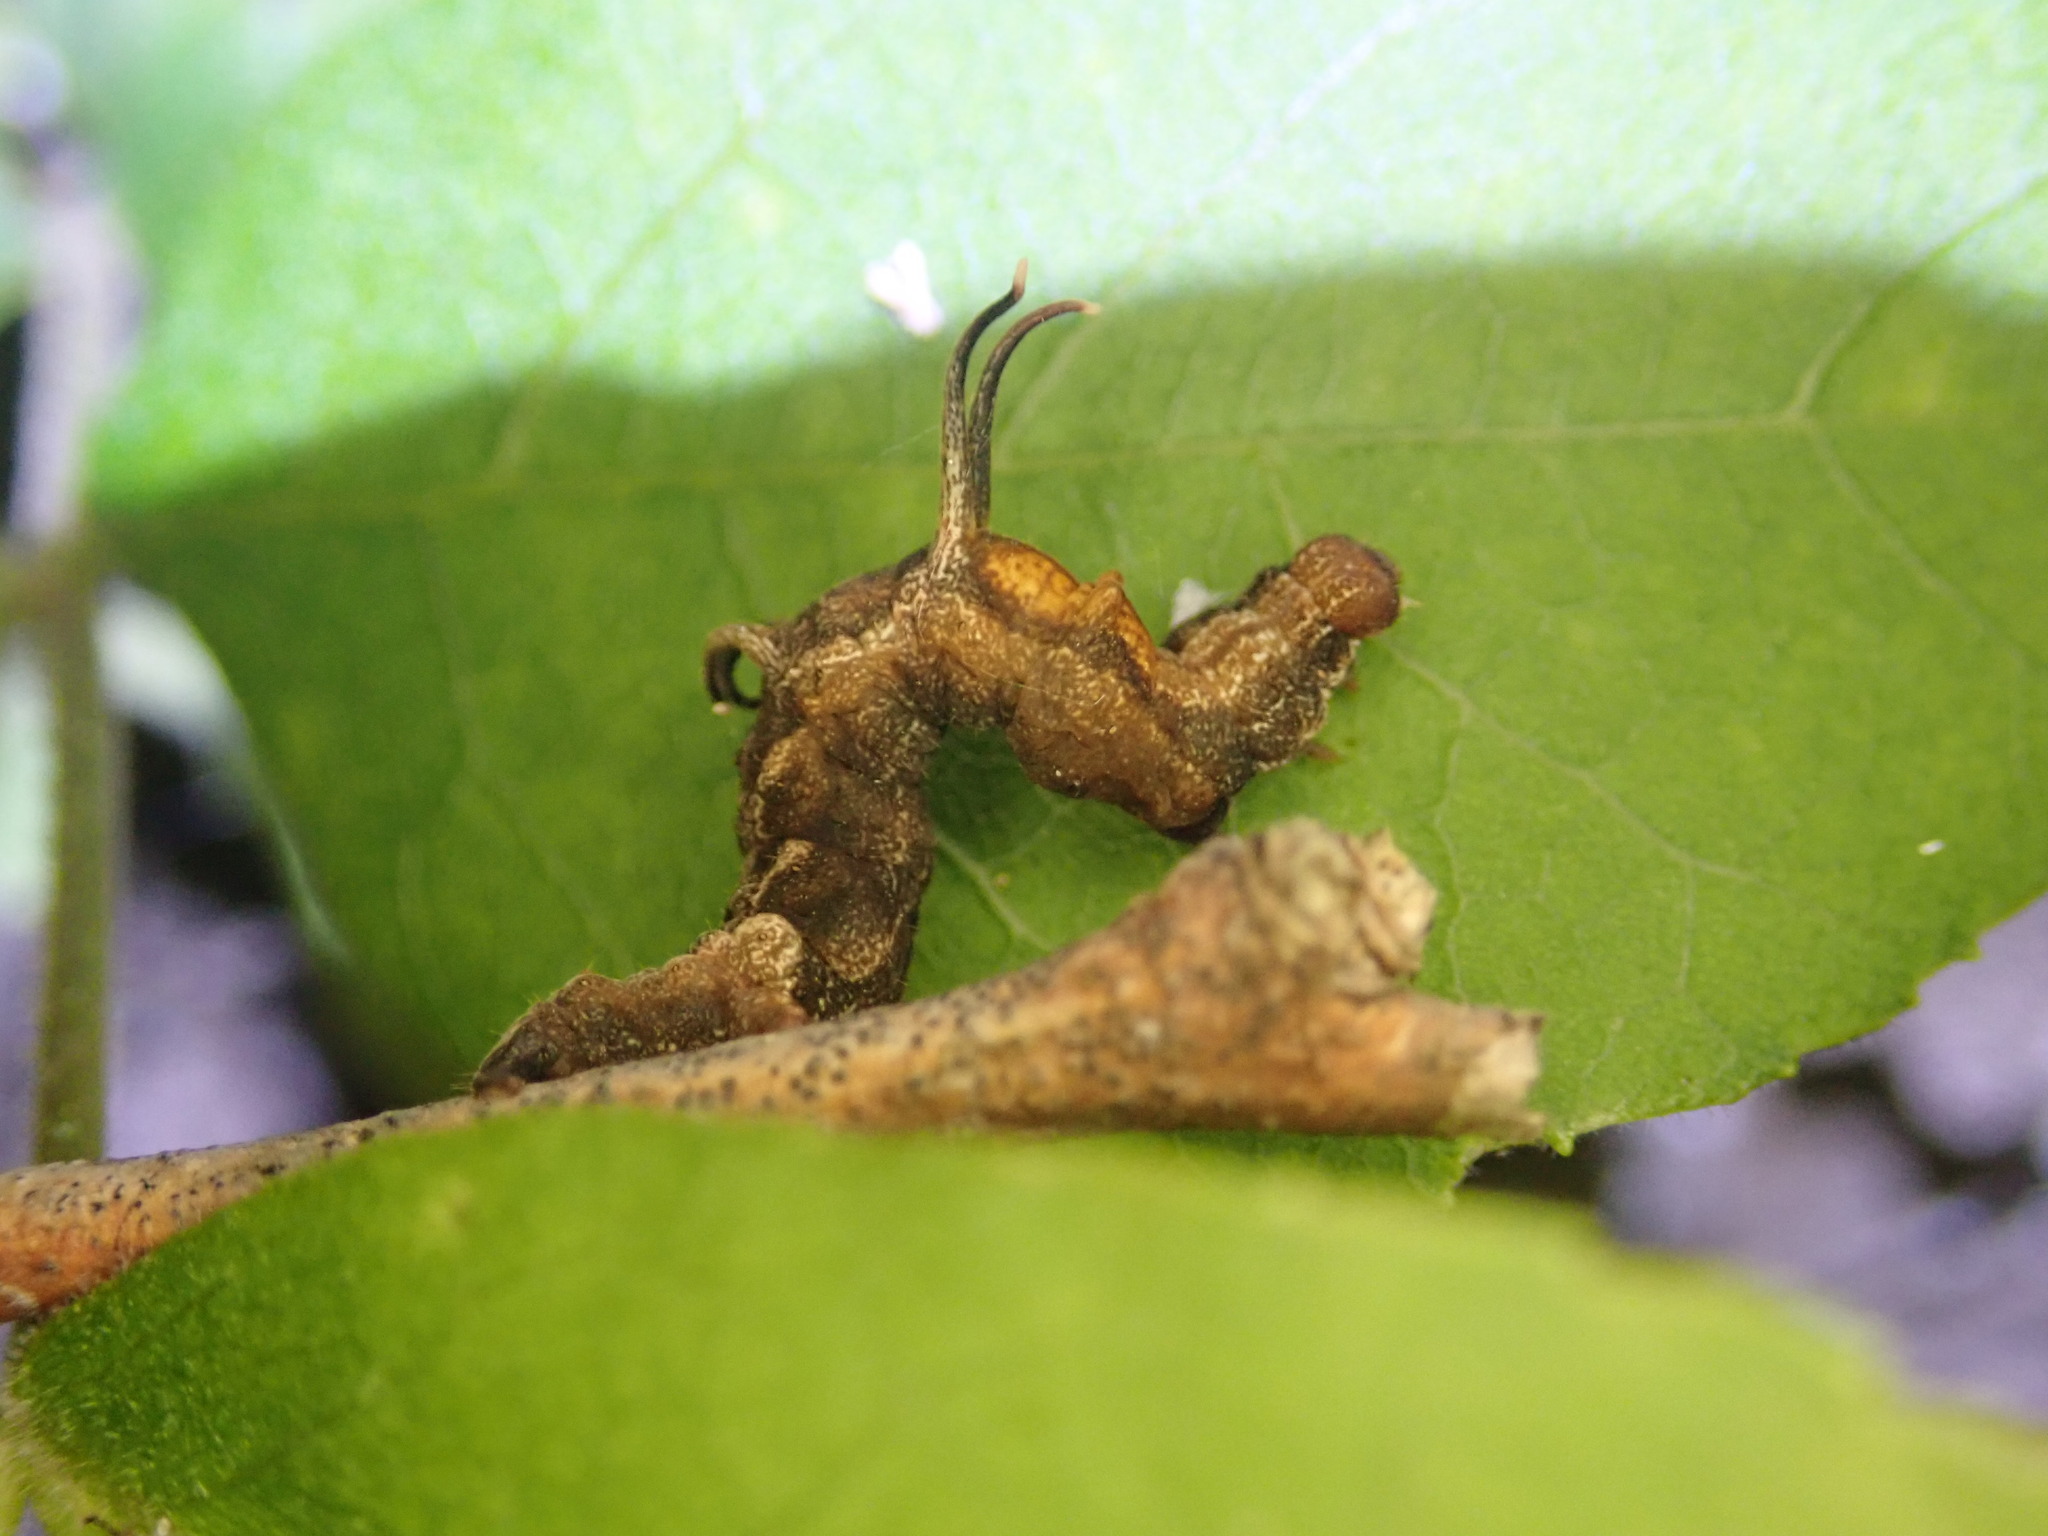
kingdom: Animalia
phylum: Arthropoda
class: Insecta
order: Lepidoptera
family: Geometridae
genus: Nematocampa
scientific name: Nematocampa resistaria
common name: Horned spanworm moth
